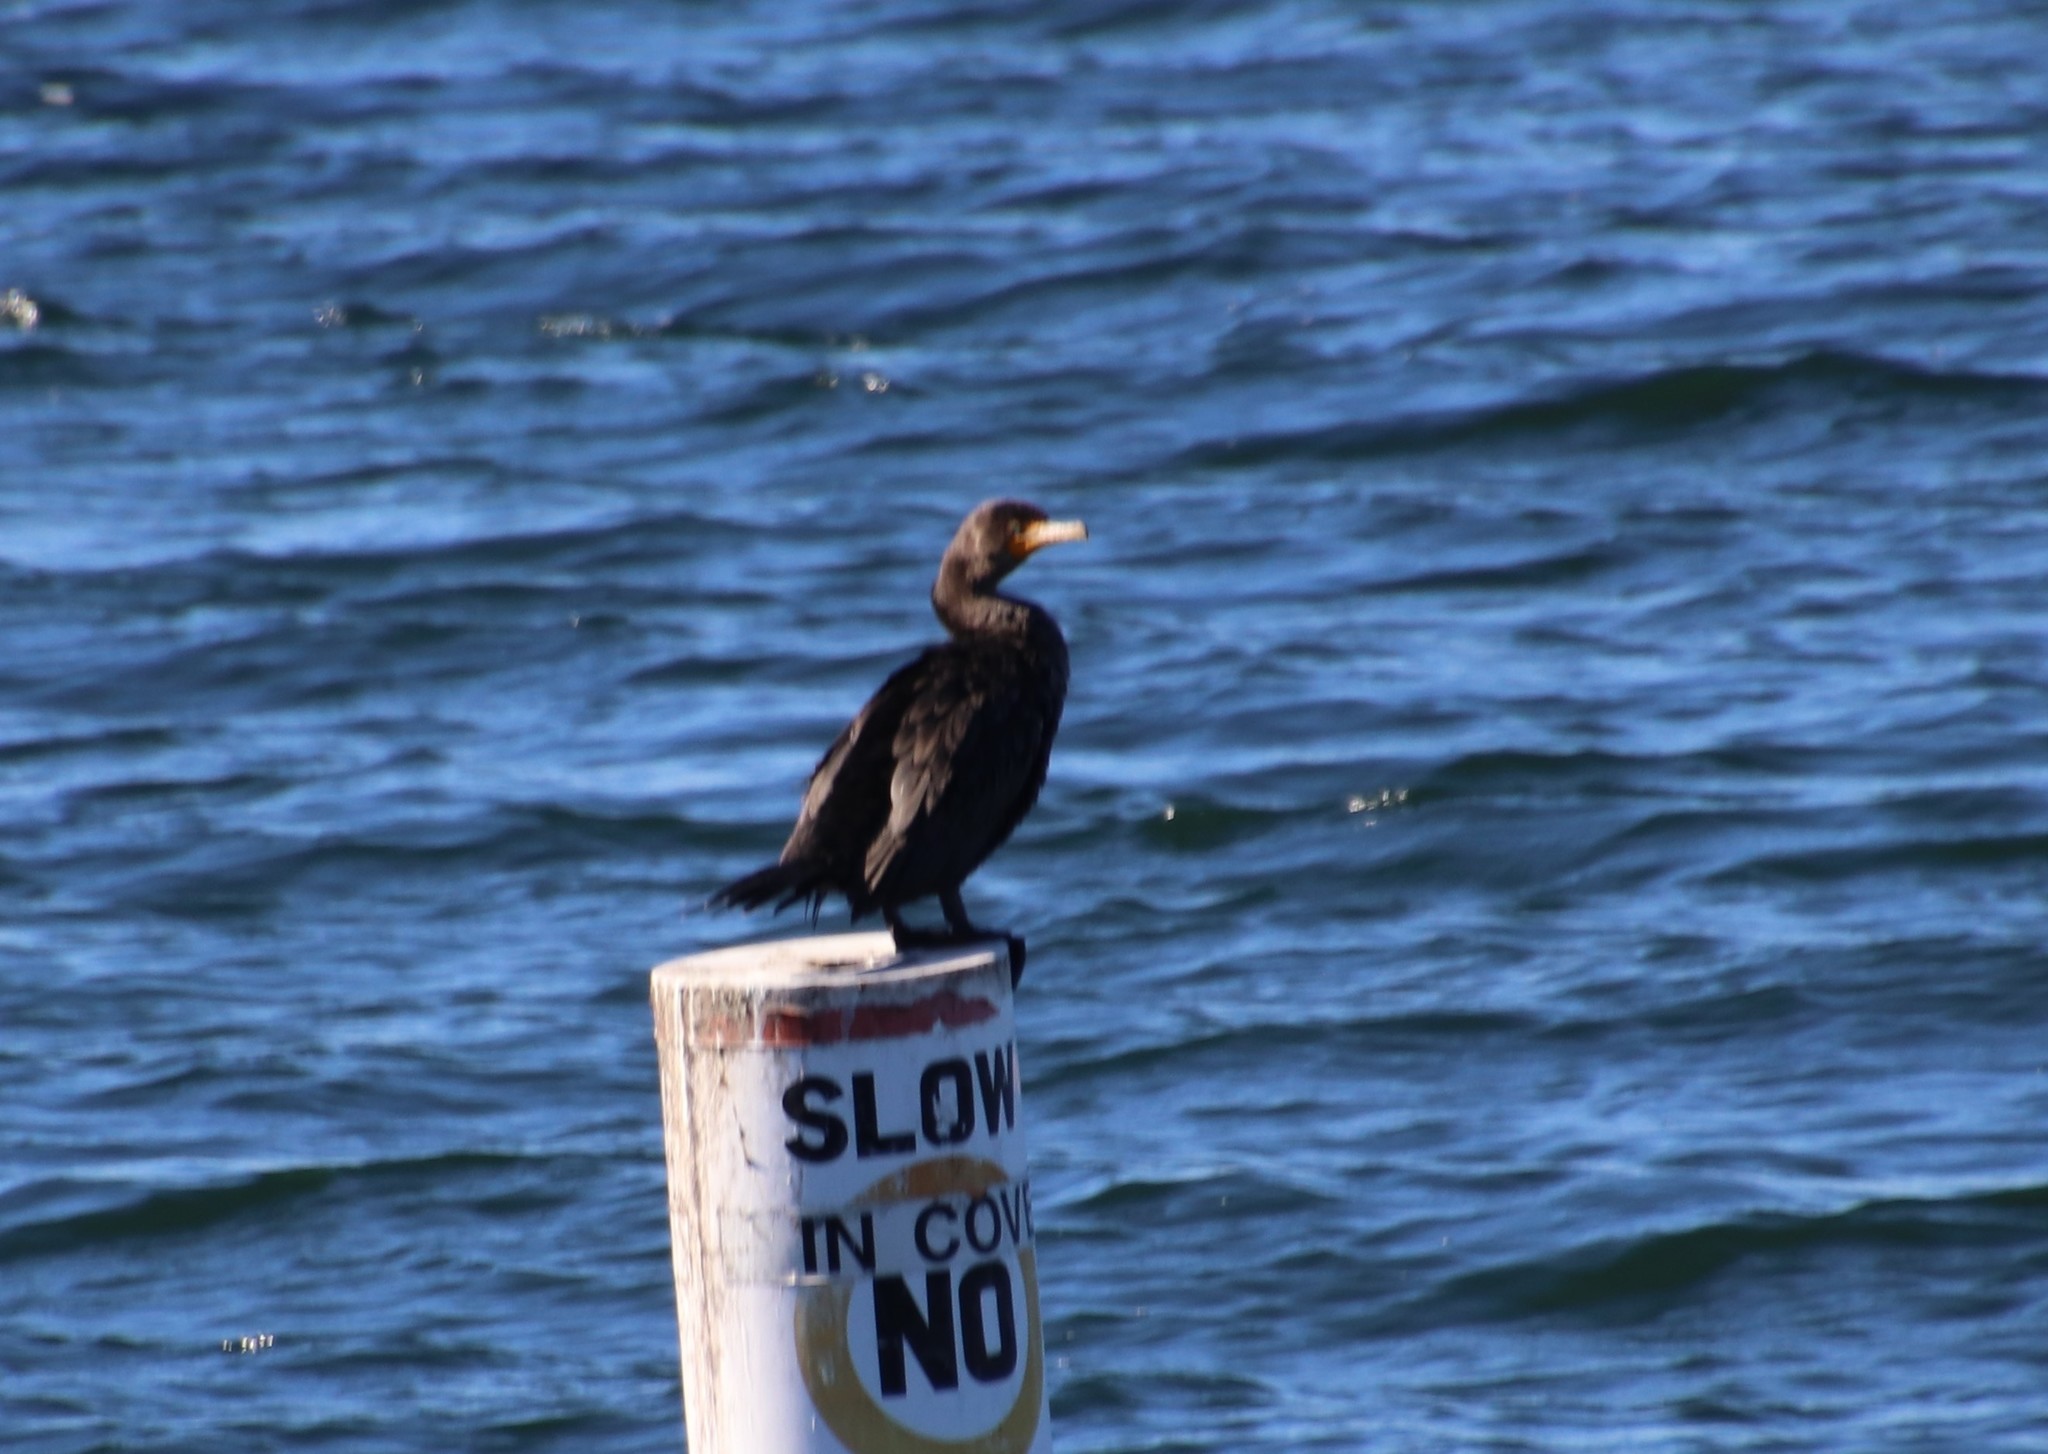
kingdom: Animalia
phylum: Chordata
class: Aves
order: Suliformes
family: Phalacrocoracidae
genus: Phalacrocorax
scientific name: Phalacrocorax auritus
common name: Double-crested cormorant
